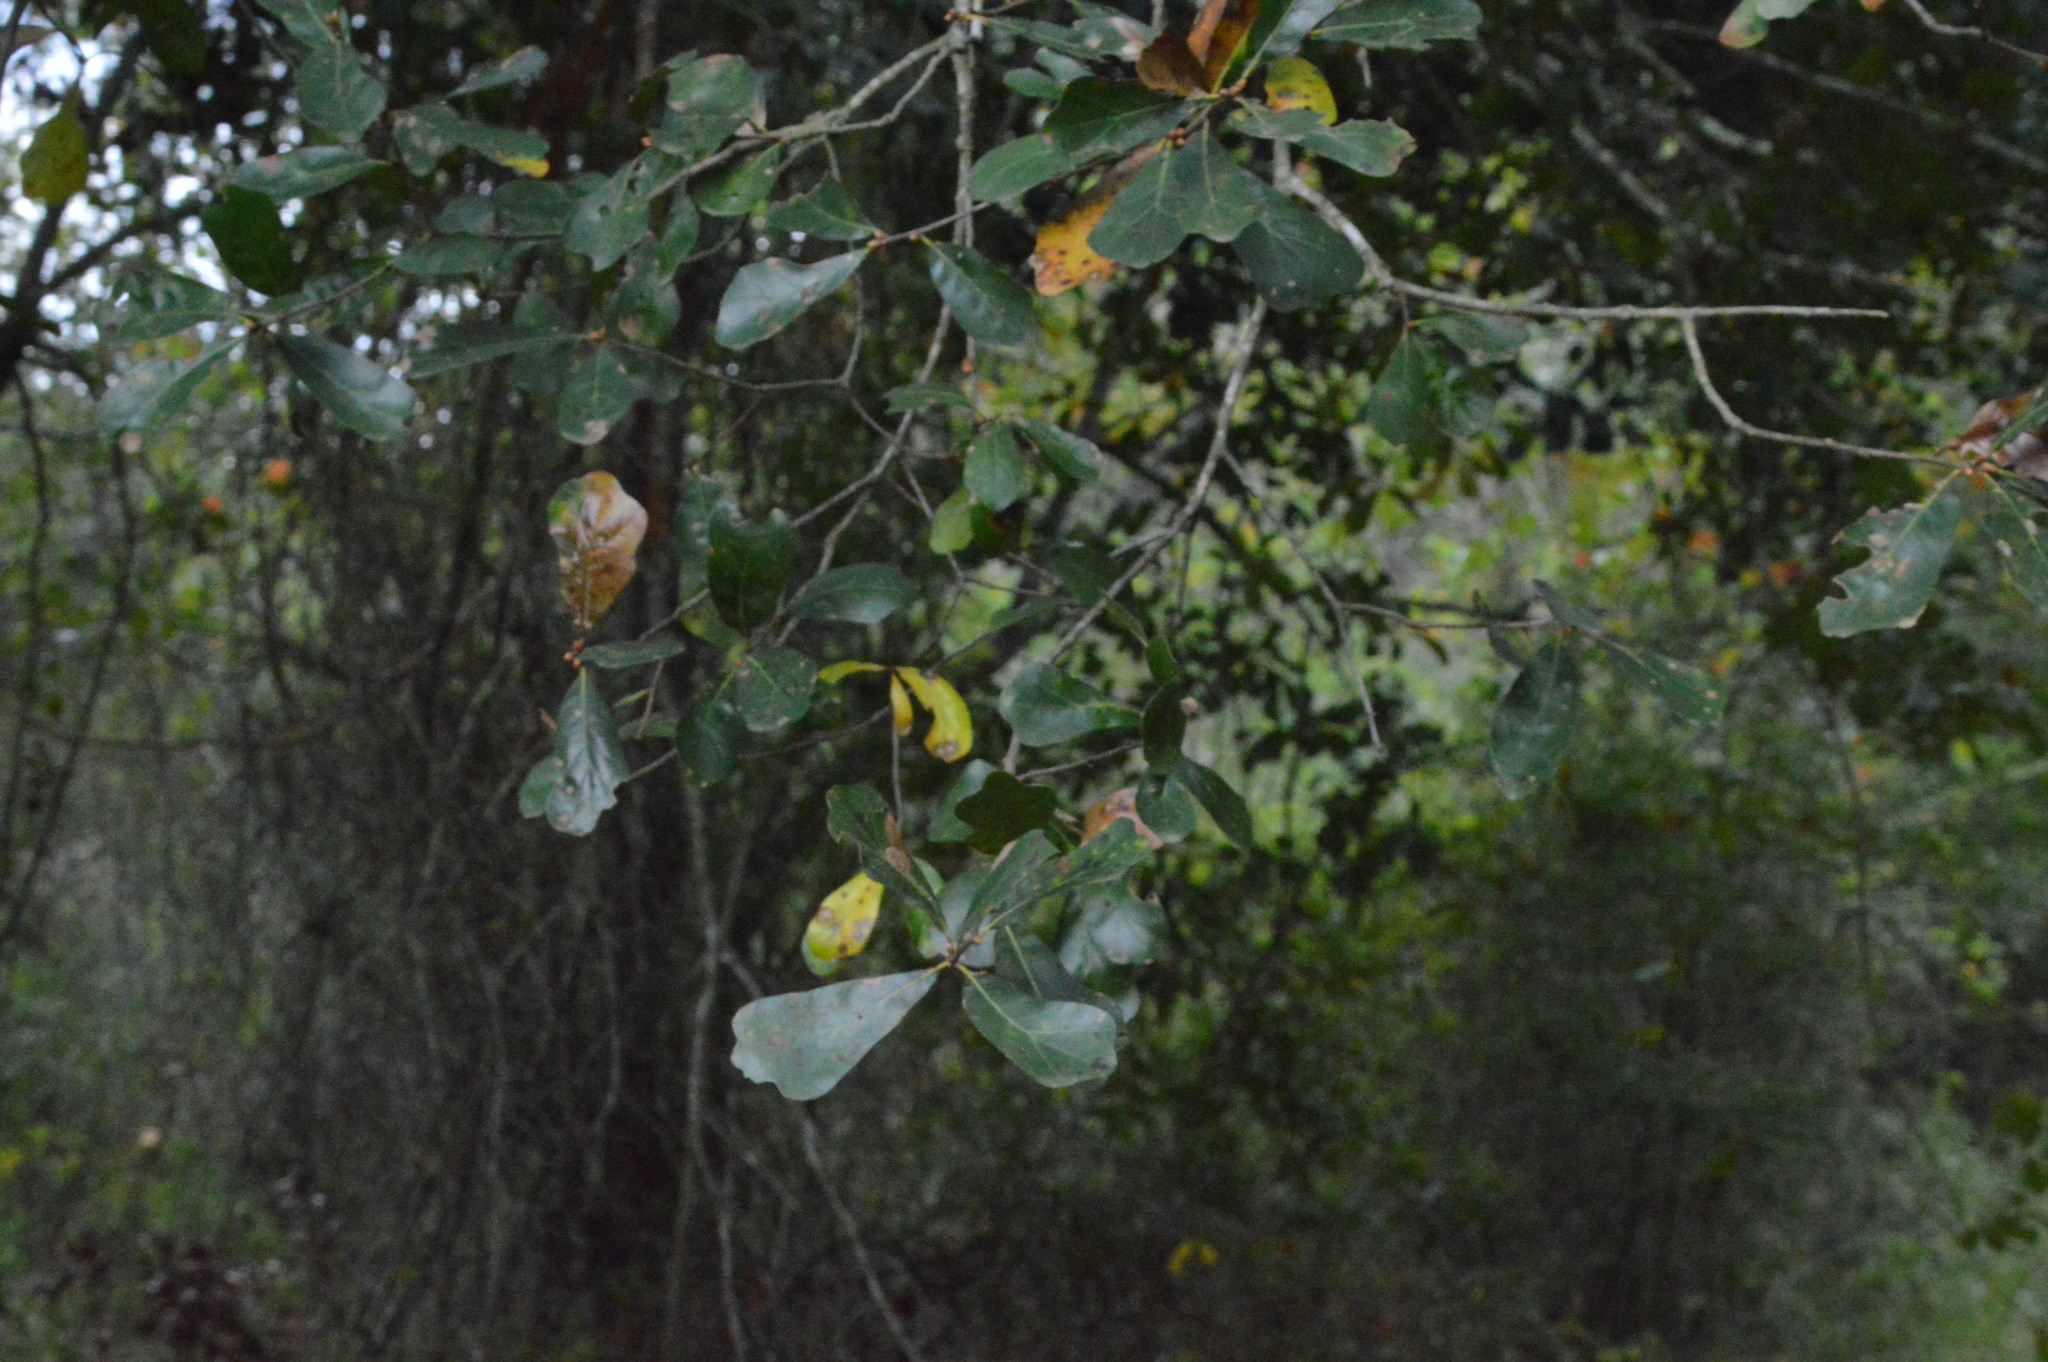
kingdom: Plantae
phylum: Tracheophyta
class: Magnoliopsida
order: Fagales
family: Fagaceae
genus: Quercus
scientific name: Quercus nigra
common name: Water oak
